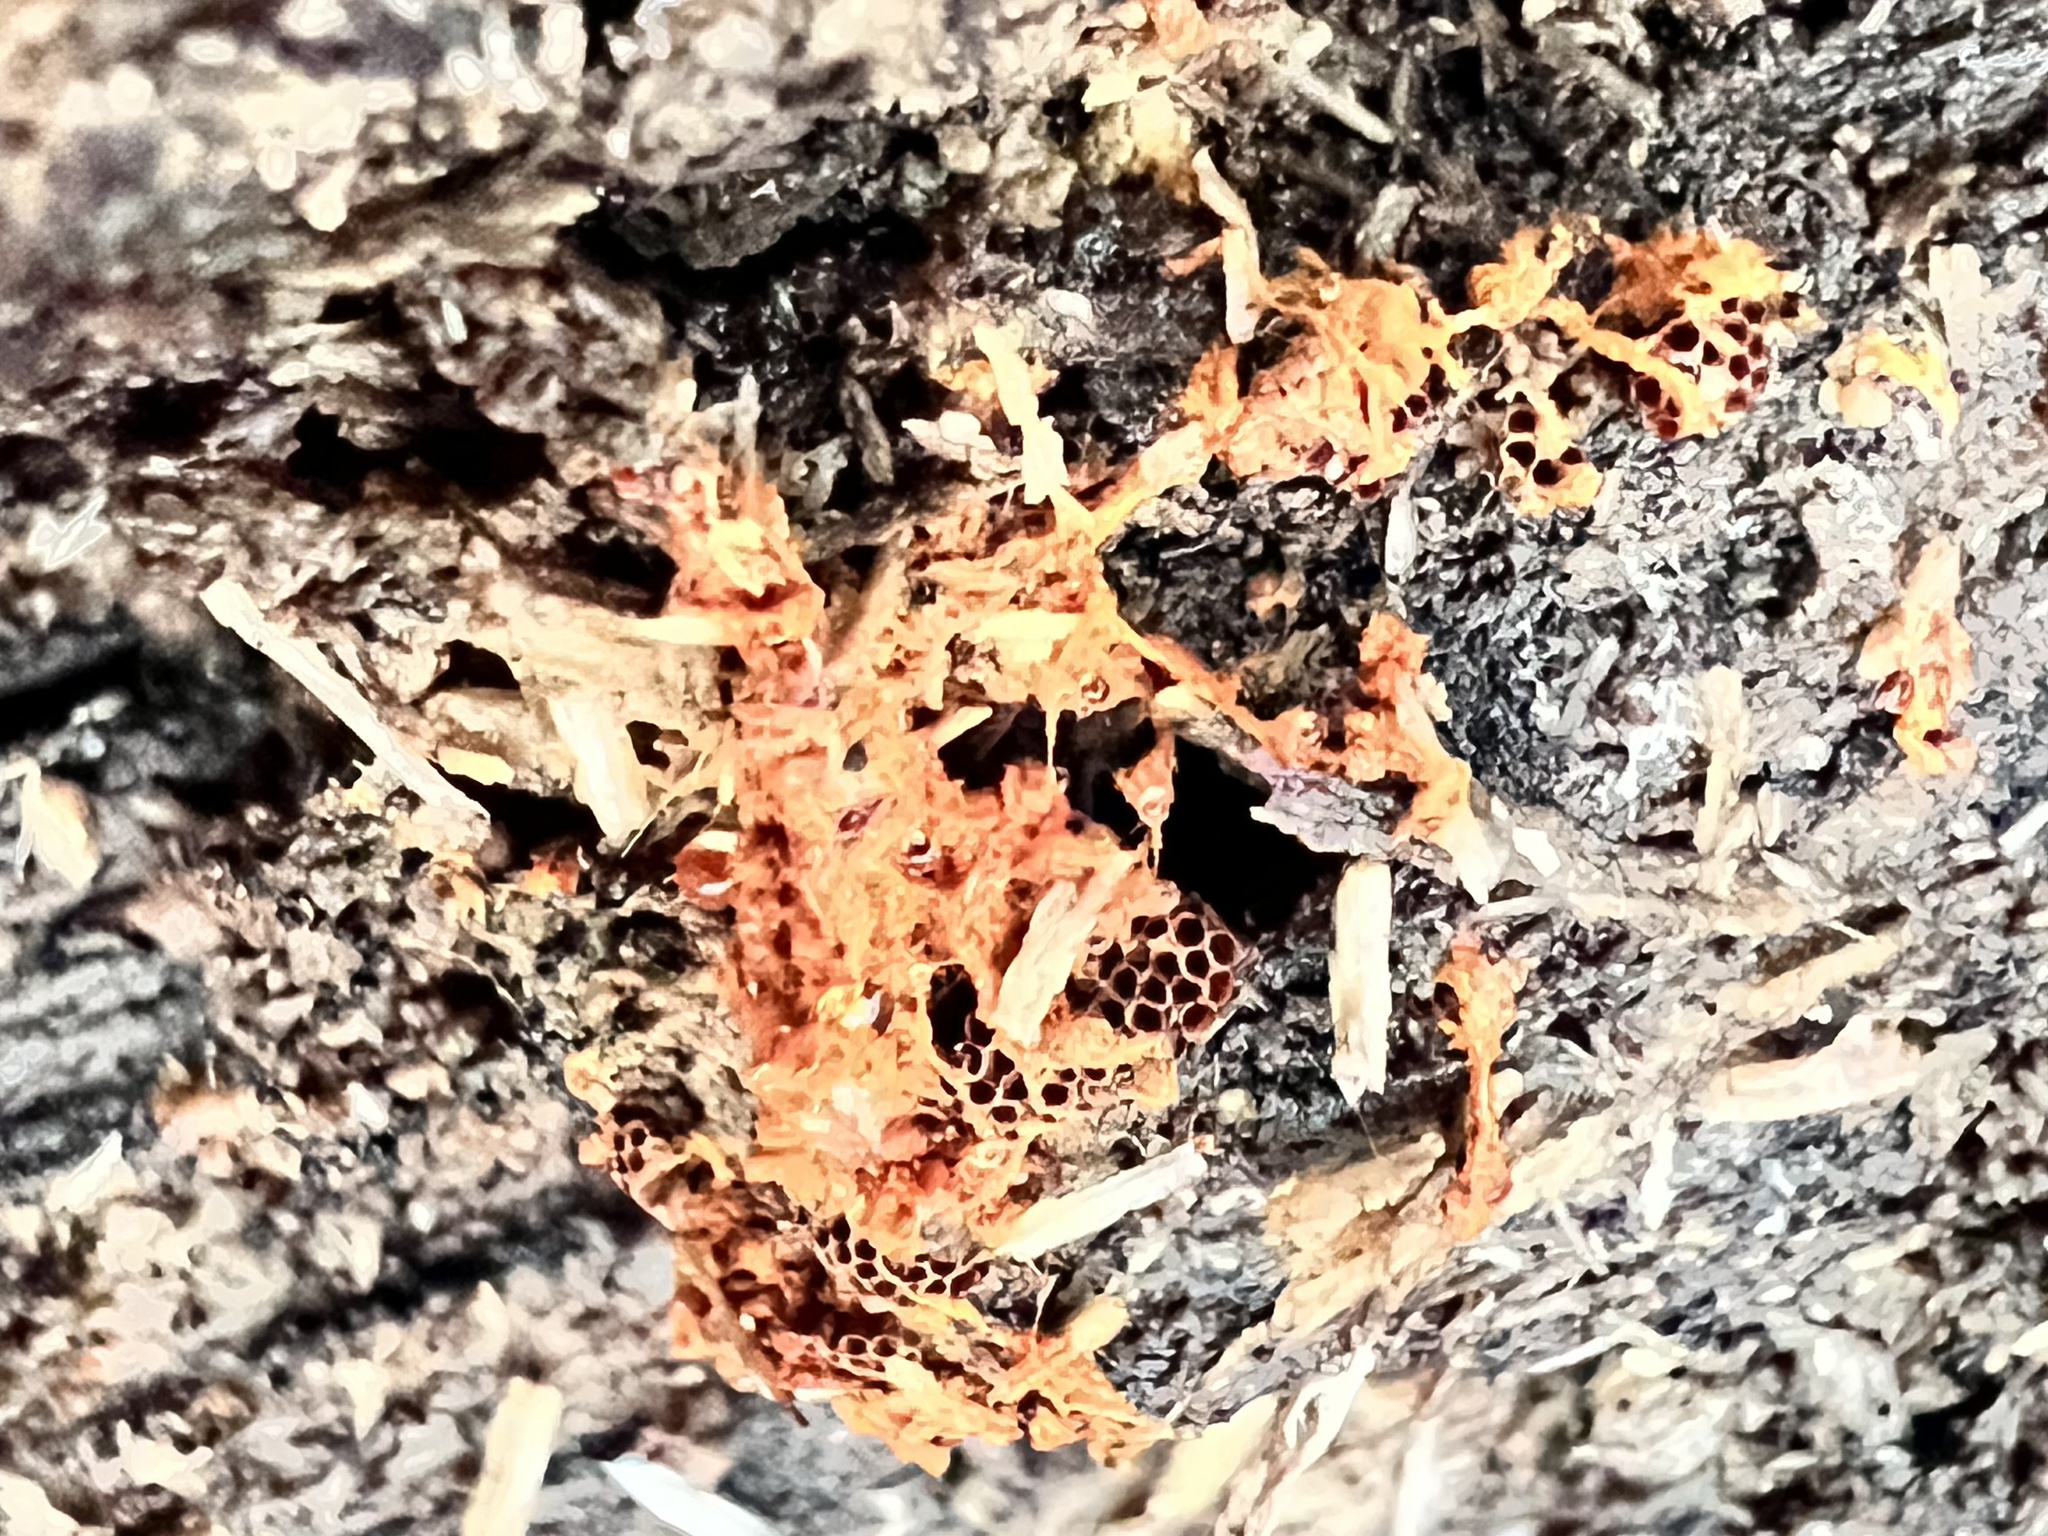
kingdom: Protozoa
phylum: Mycetozoa
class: Myxomycetes
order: Trichiales
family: Trichiaceae
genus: Metatrichia
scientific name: Metatrichia vesparia
